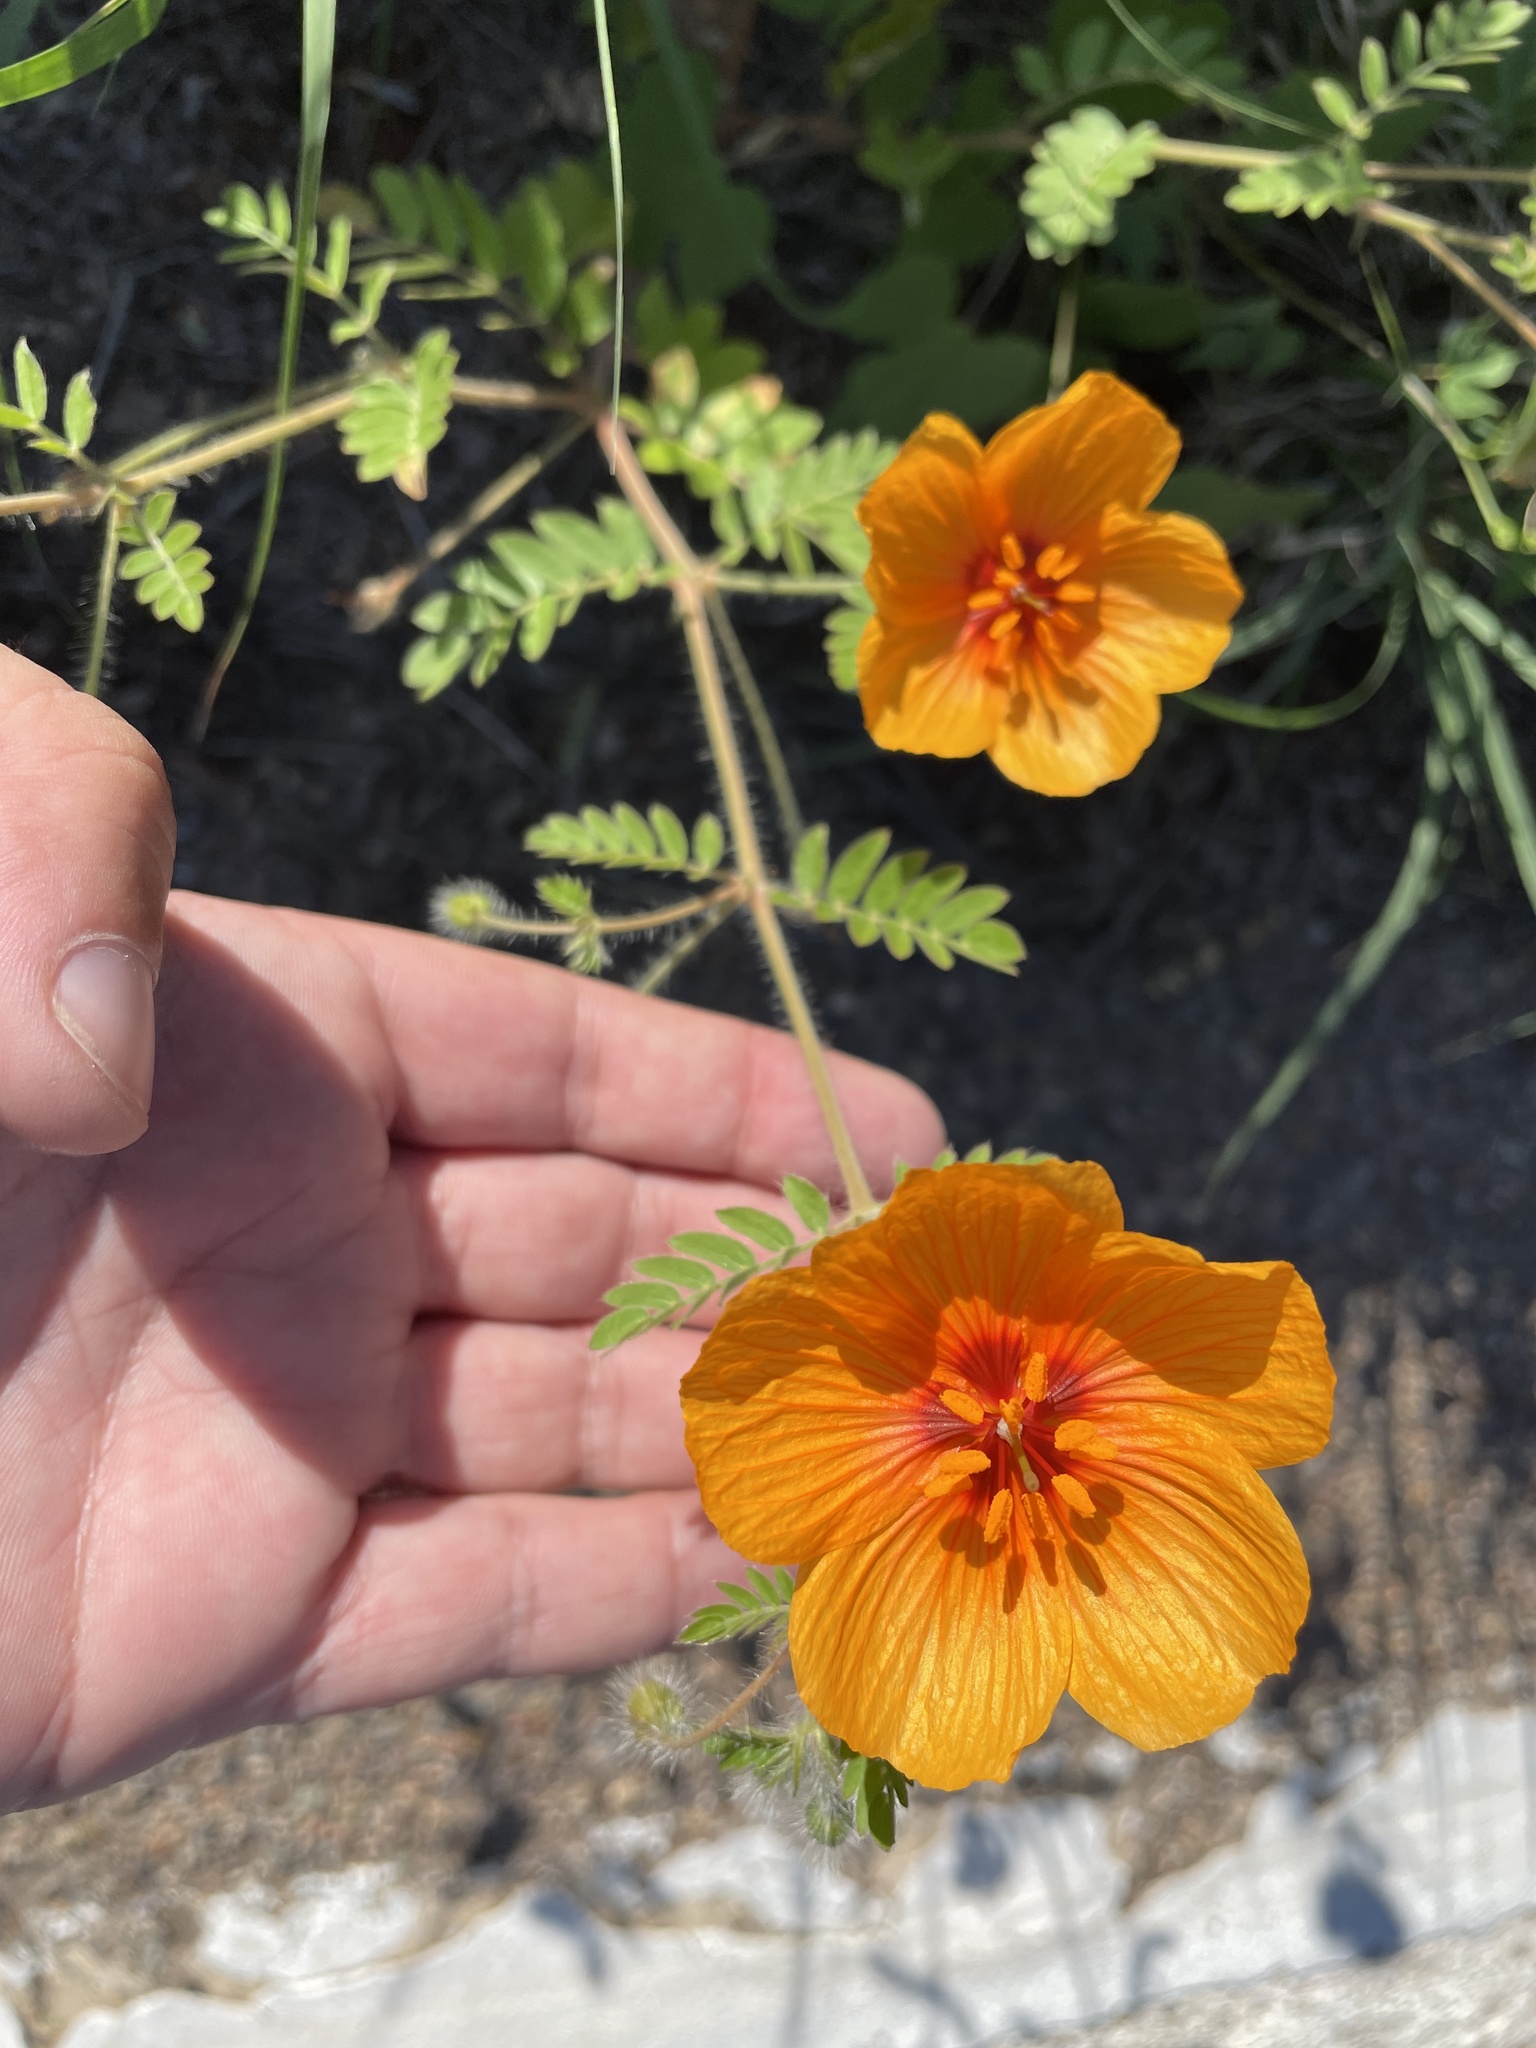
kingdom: Plantae
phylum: Tracheophyta
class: Magnoliopsida
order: Zygophyllales
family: Zygophyllaceae
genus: Kallstroemia
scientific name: Kallstroemia grandiflora
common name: Arizona-poppy
